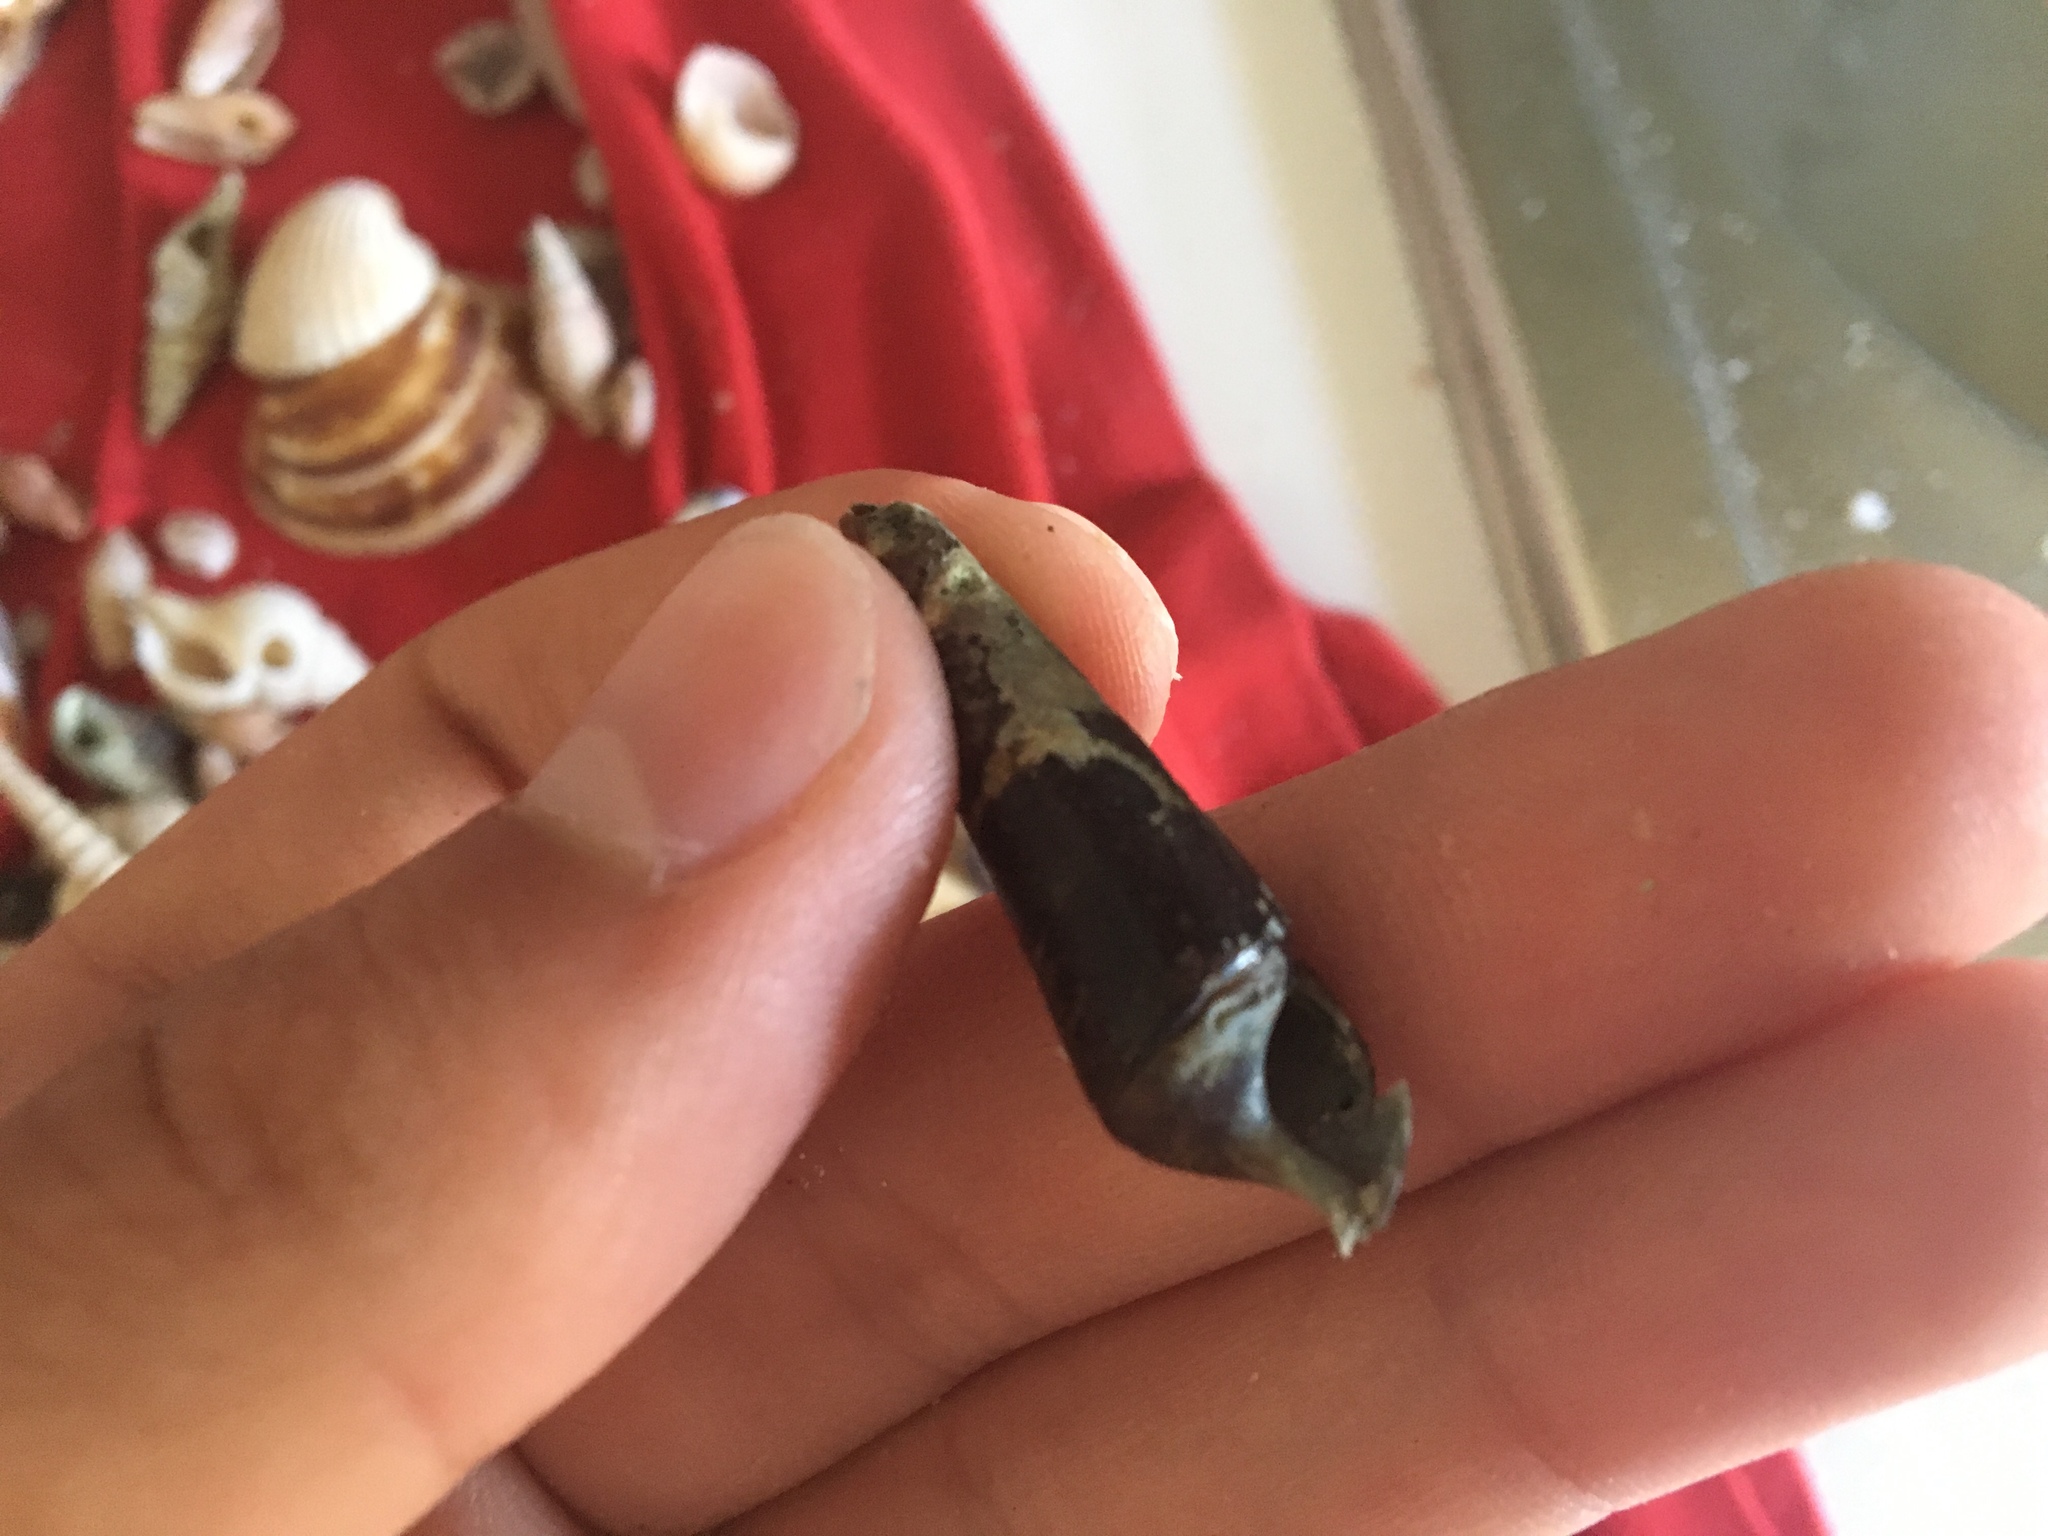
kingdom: Animalia
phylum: Mollusca
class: Gastropoda
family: Pachychilidae
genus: Faunus
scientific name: Faunus ater
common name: Black faunus
